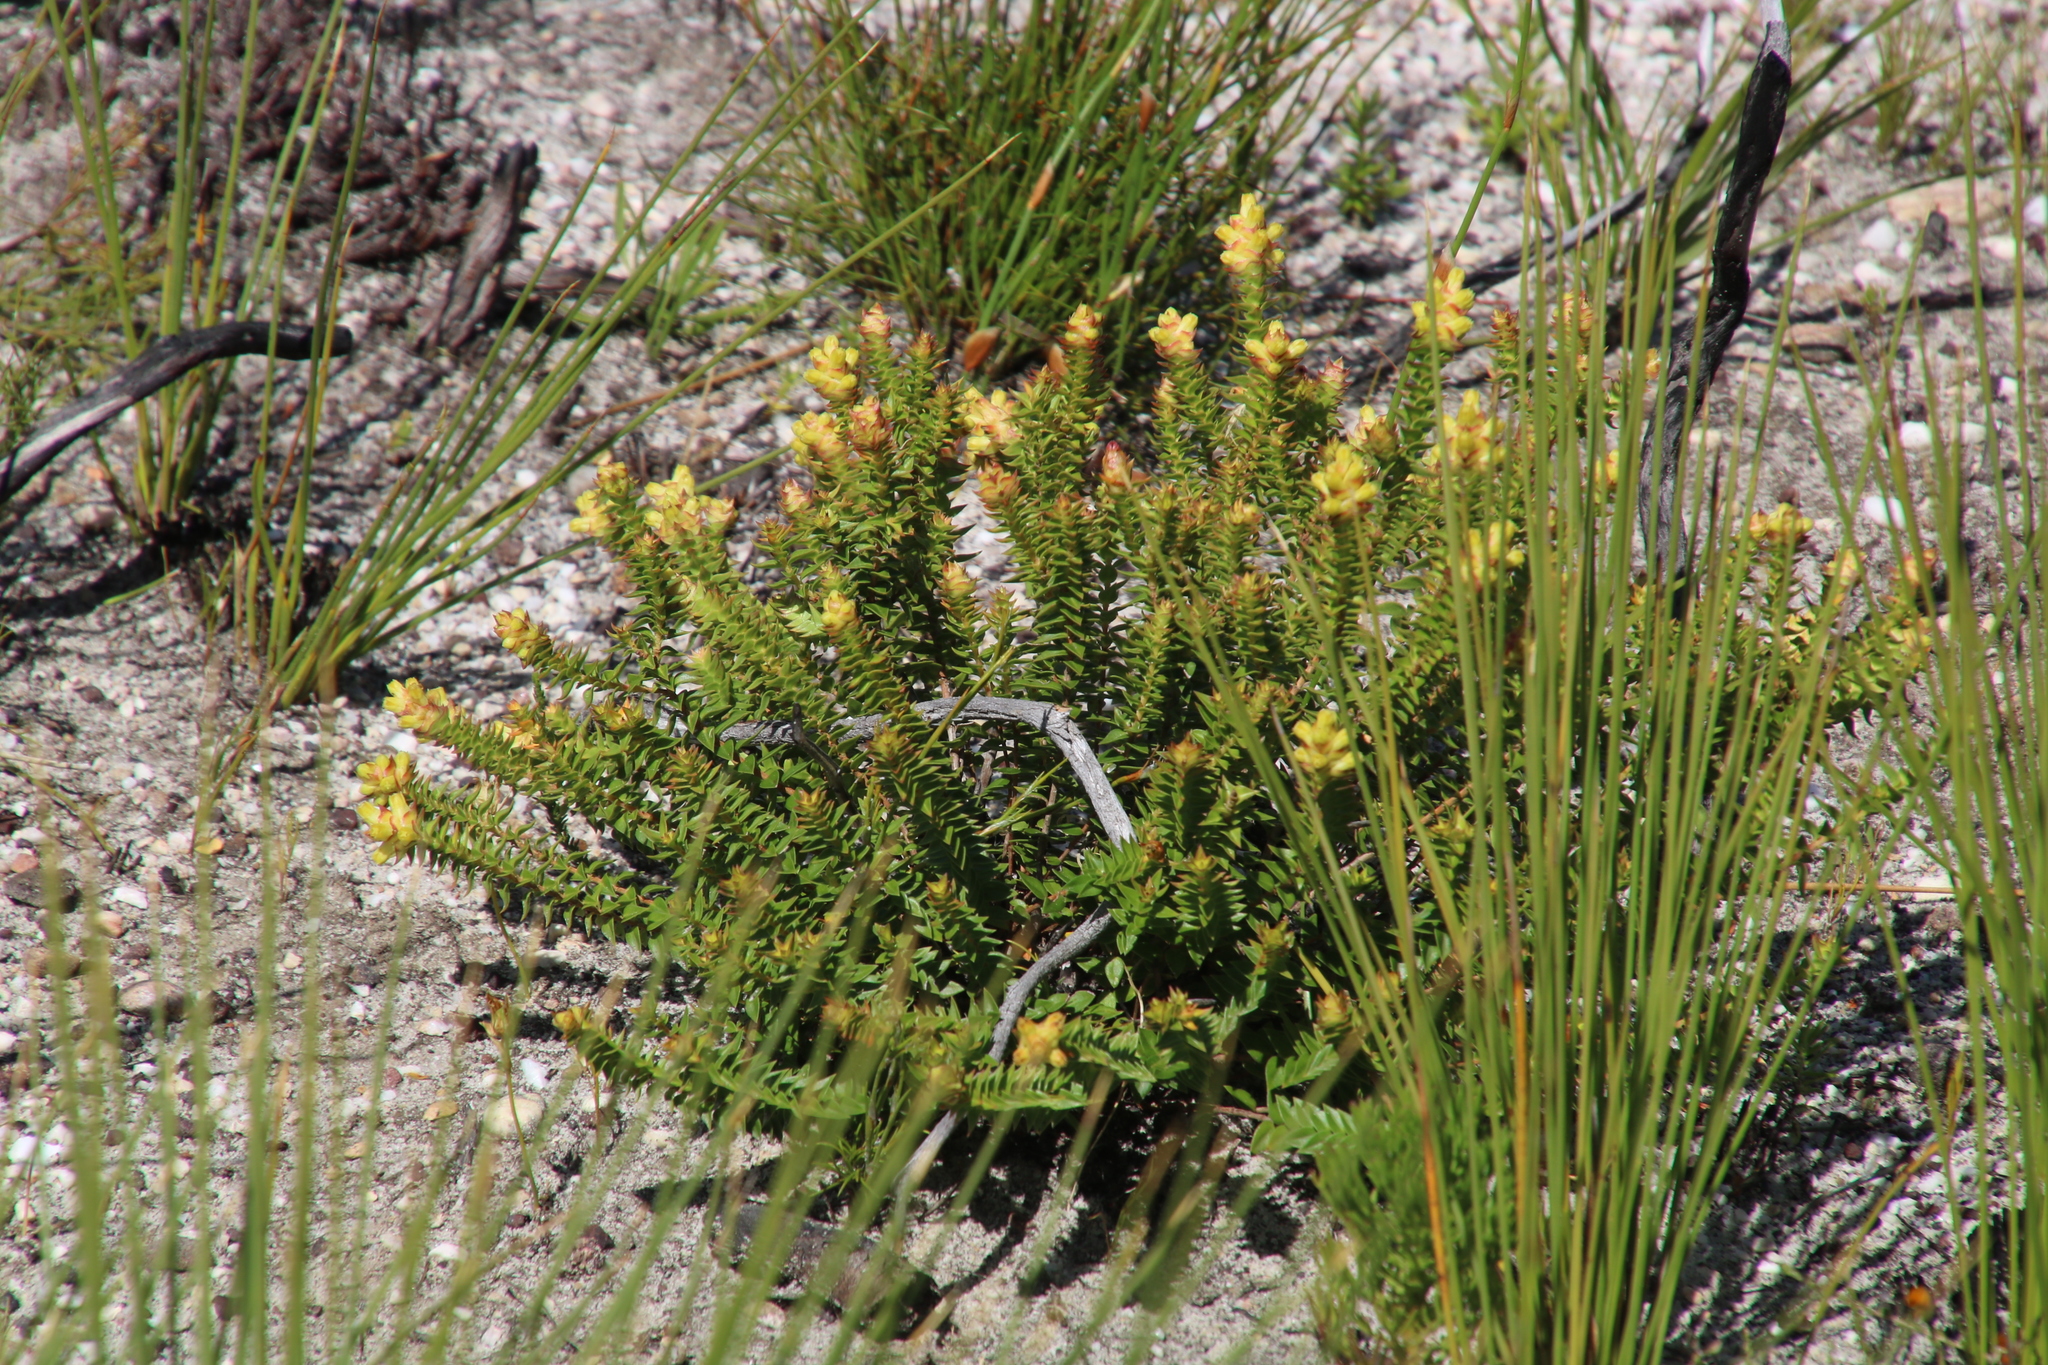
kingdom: Plantae
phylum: Tracheophyta
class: Magnoliopsida
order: Myrtales
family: Penaeaceae
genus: Penaea
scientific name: Penaea mucronata
